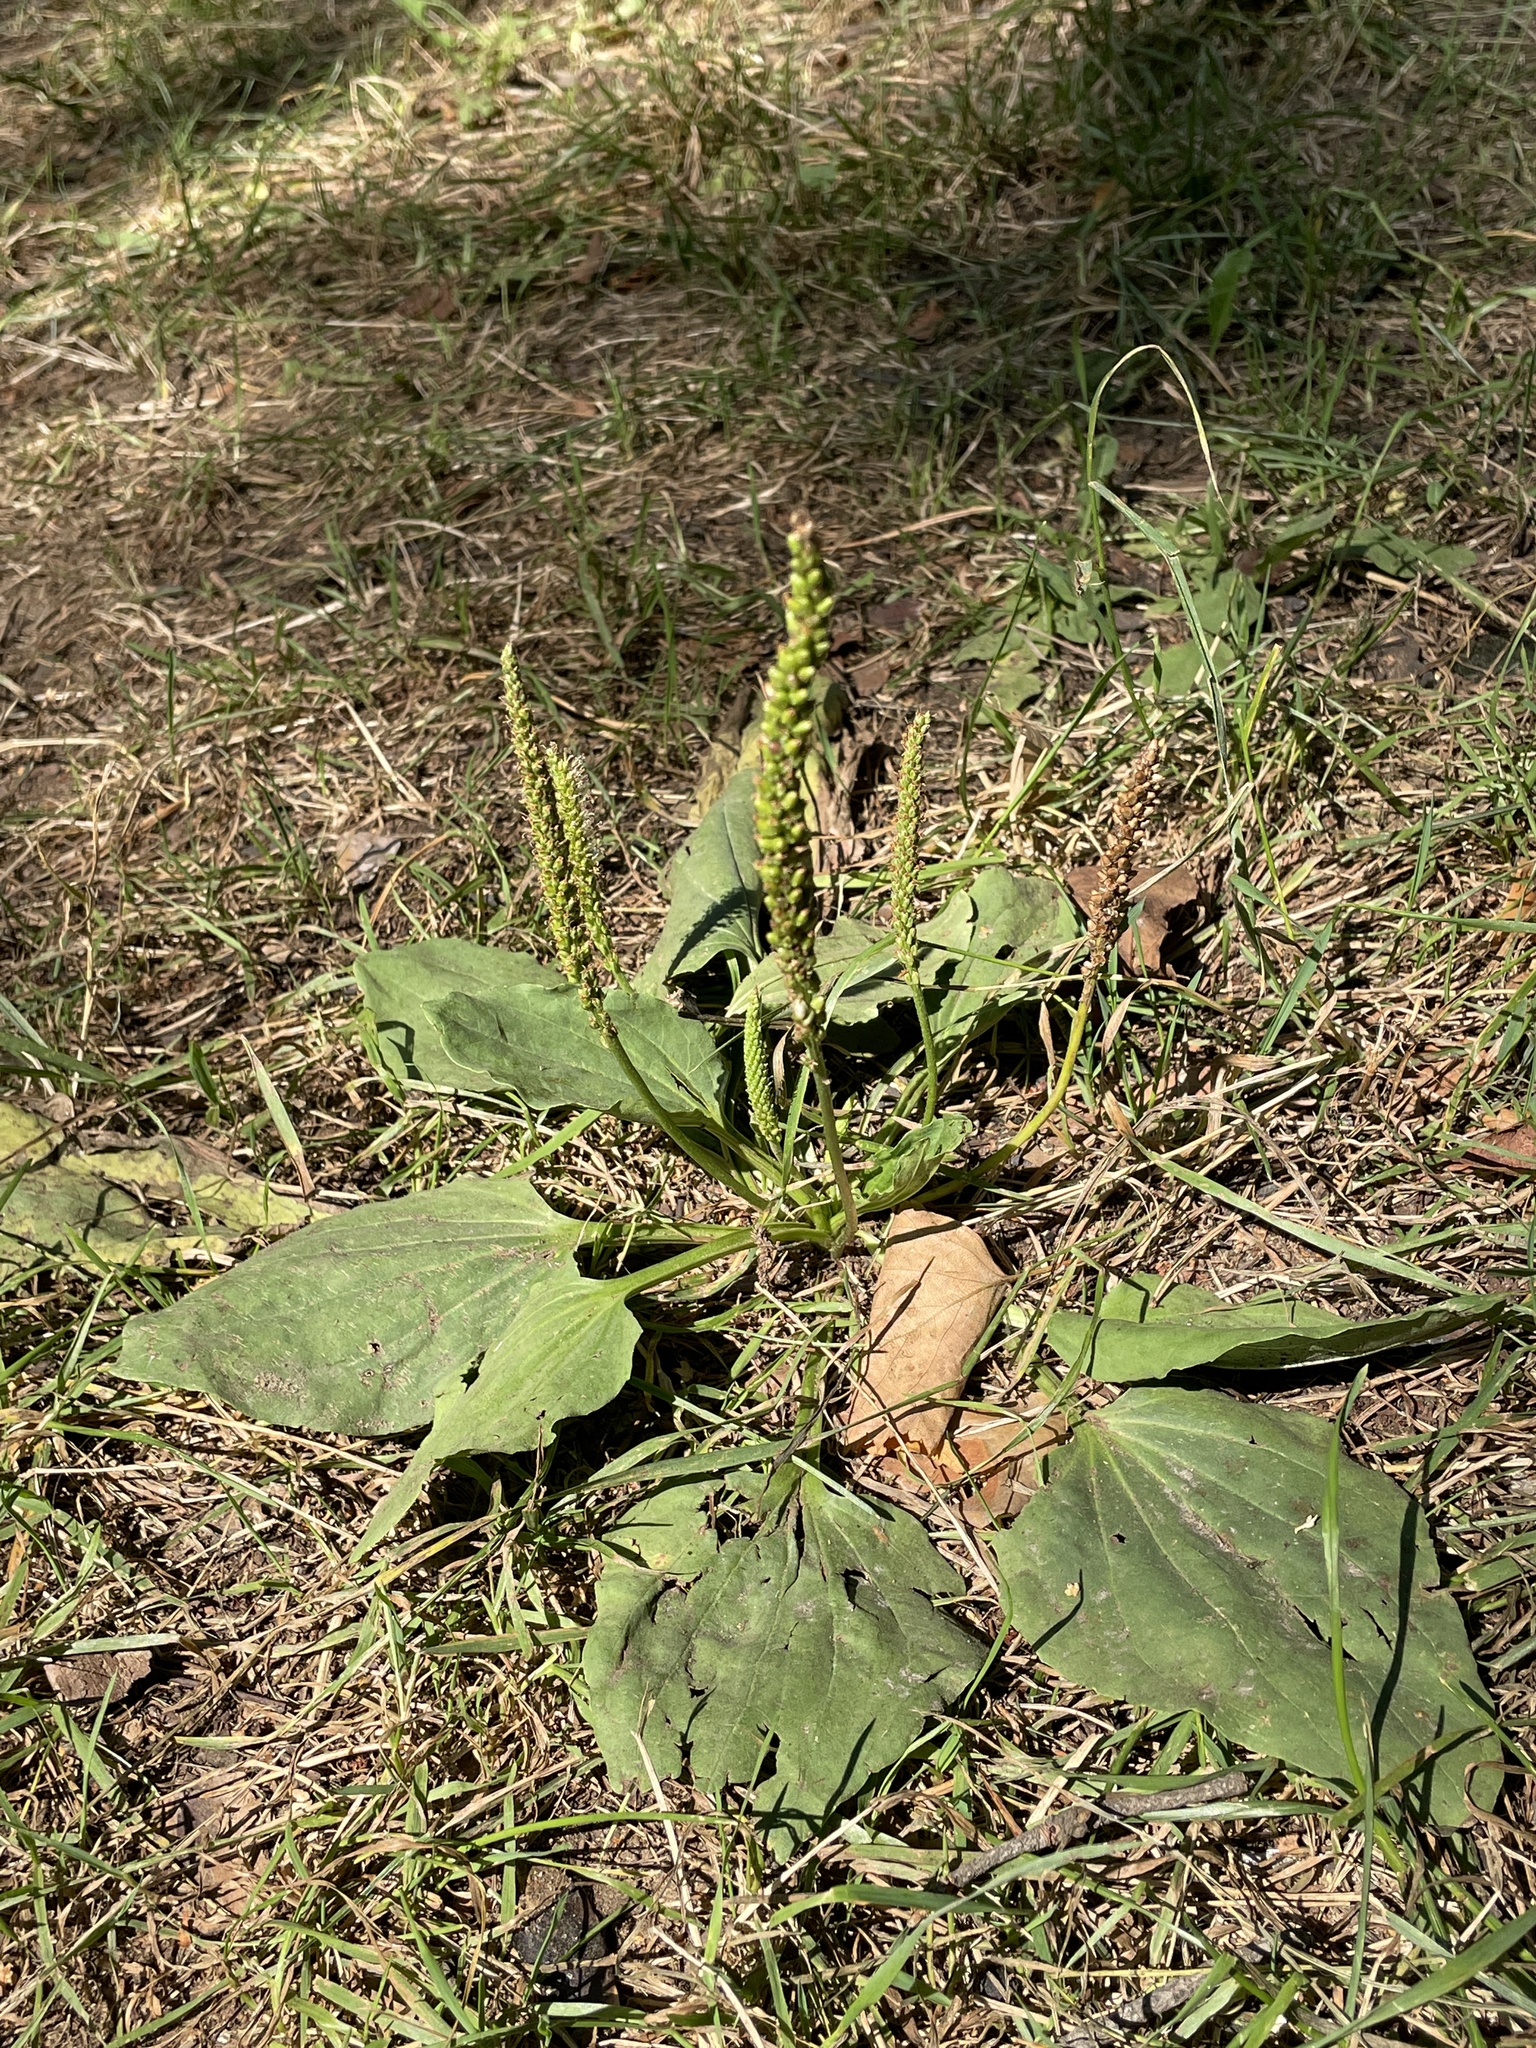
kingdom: Plantae
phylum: Tracheophyta
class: Magnoliopsida
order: Lamiales
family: Plantaginaceae
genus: Plantago
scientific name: Plantago major
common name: Common plantain
